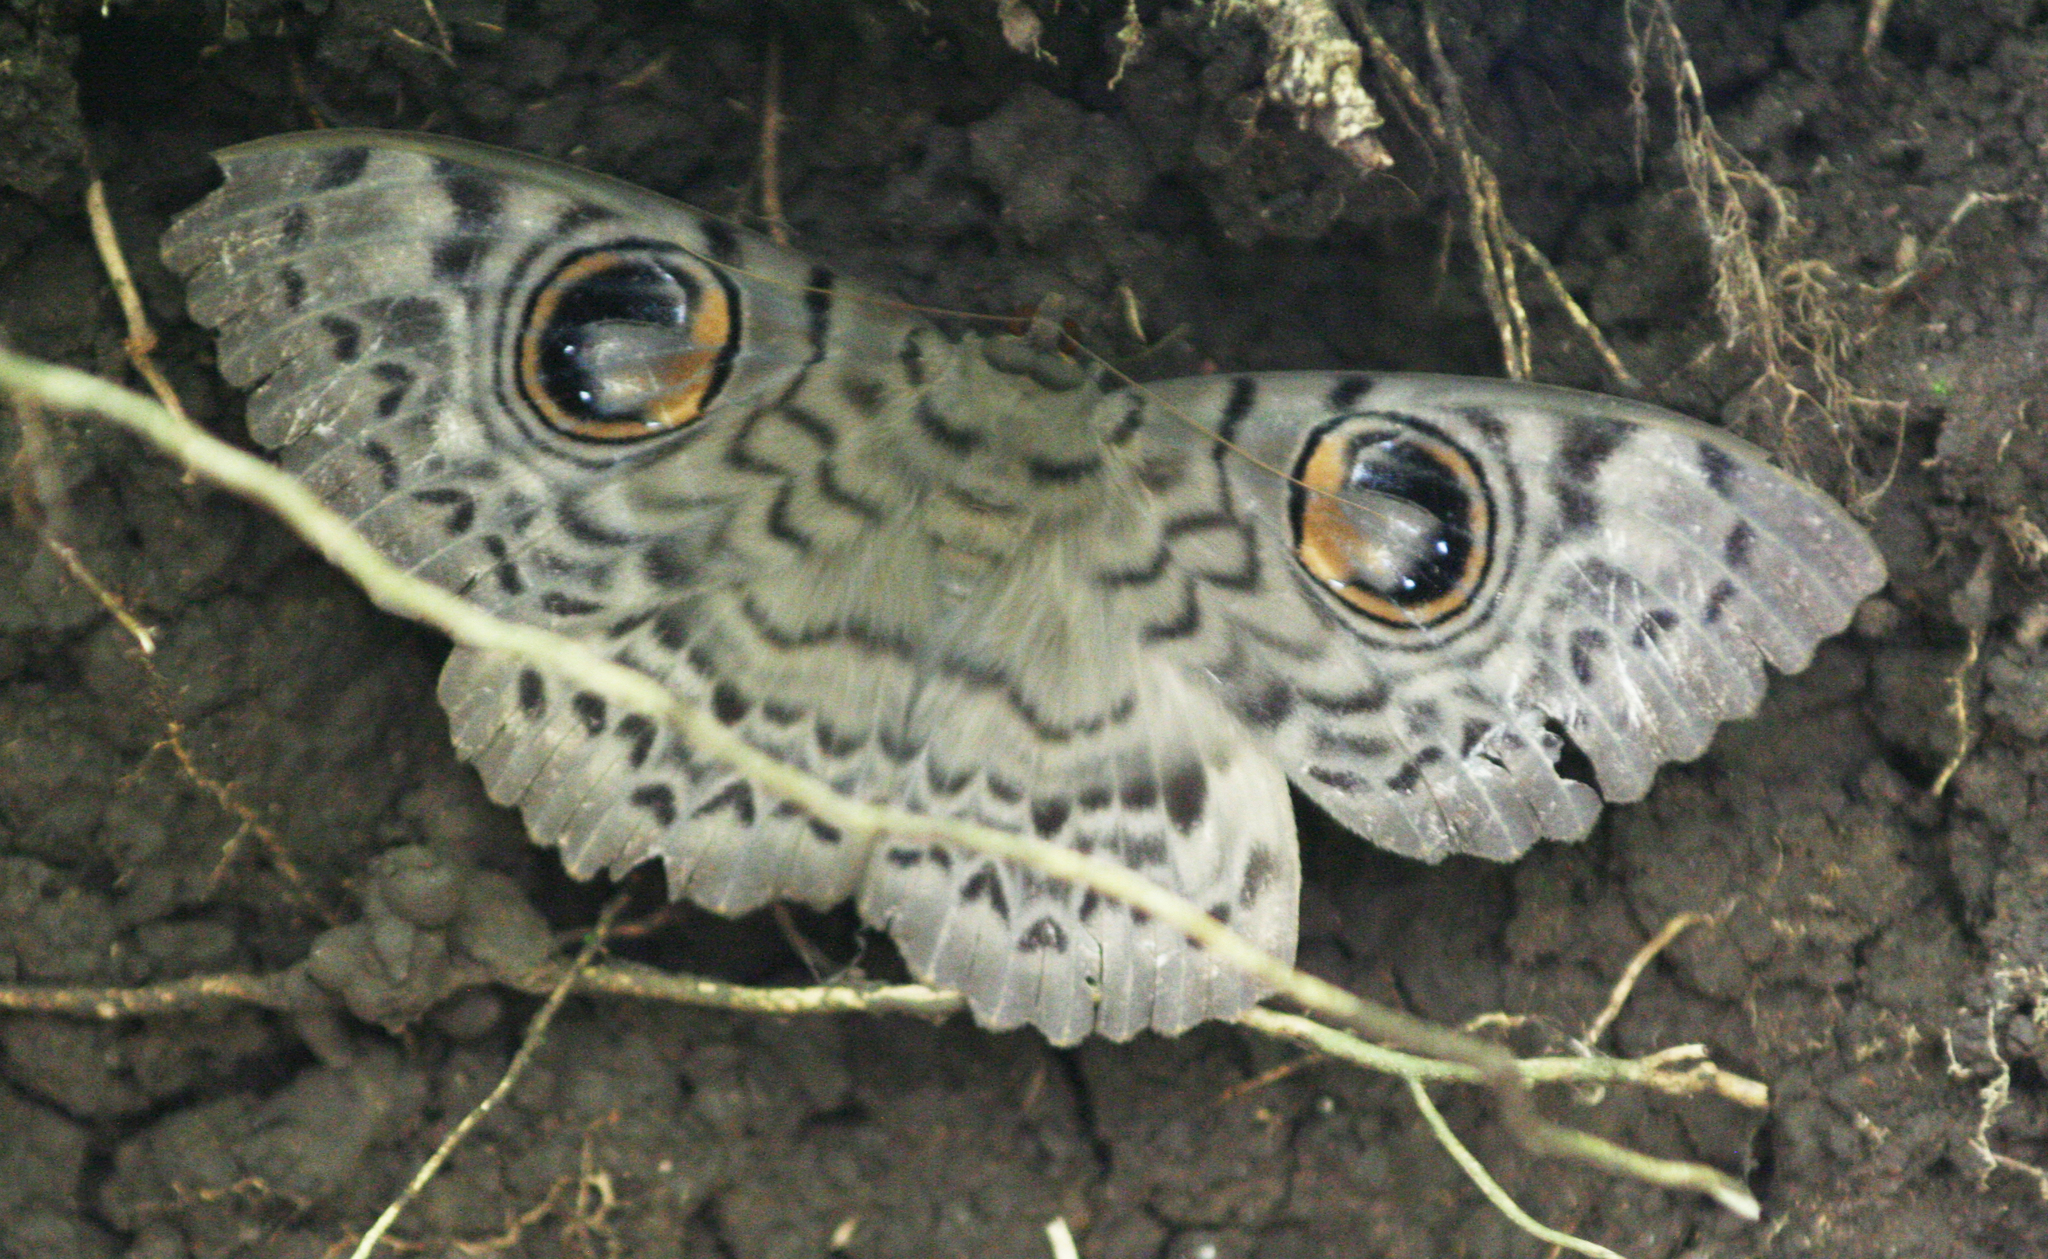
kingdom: Animalia
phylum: Arthropoda
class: Insecta
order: Lepidoptera
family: Erebidae
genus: Erebus
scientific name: Erebus macrops
